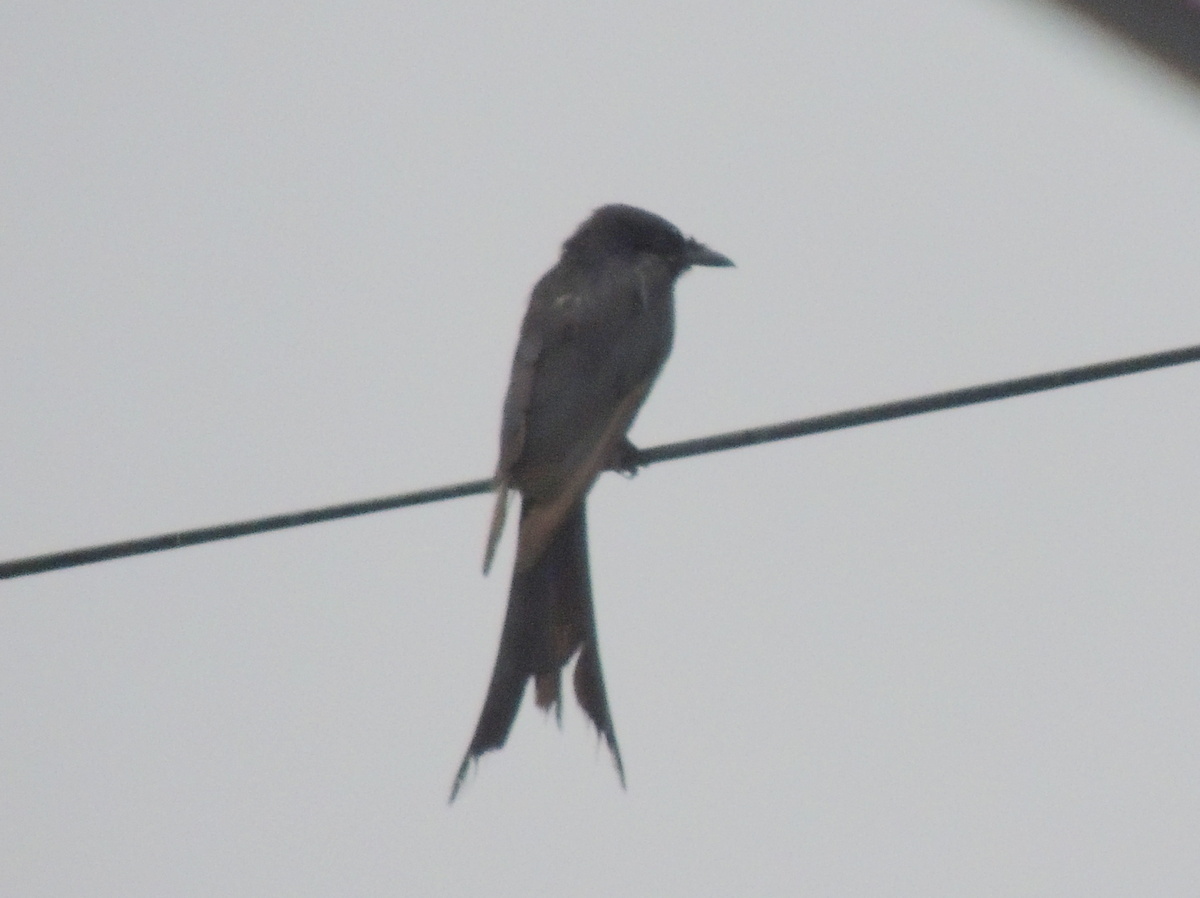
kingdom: Animalia
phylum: Chordata
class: Aves
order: Passeriformes
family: Dicruridae
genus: Dicrurus
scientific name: Dicrurus macrocercus
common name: Black drongo
